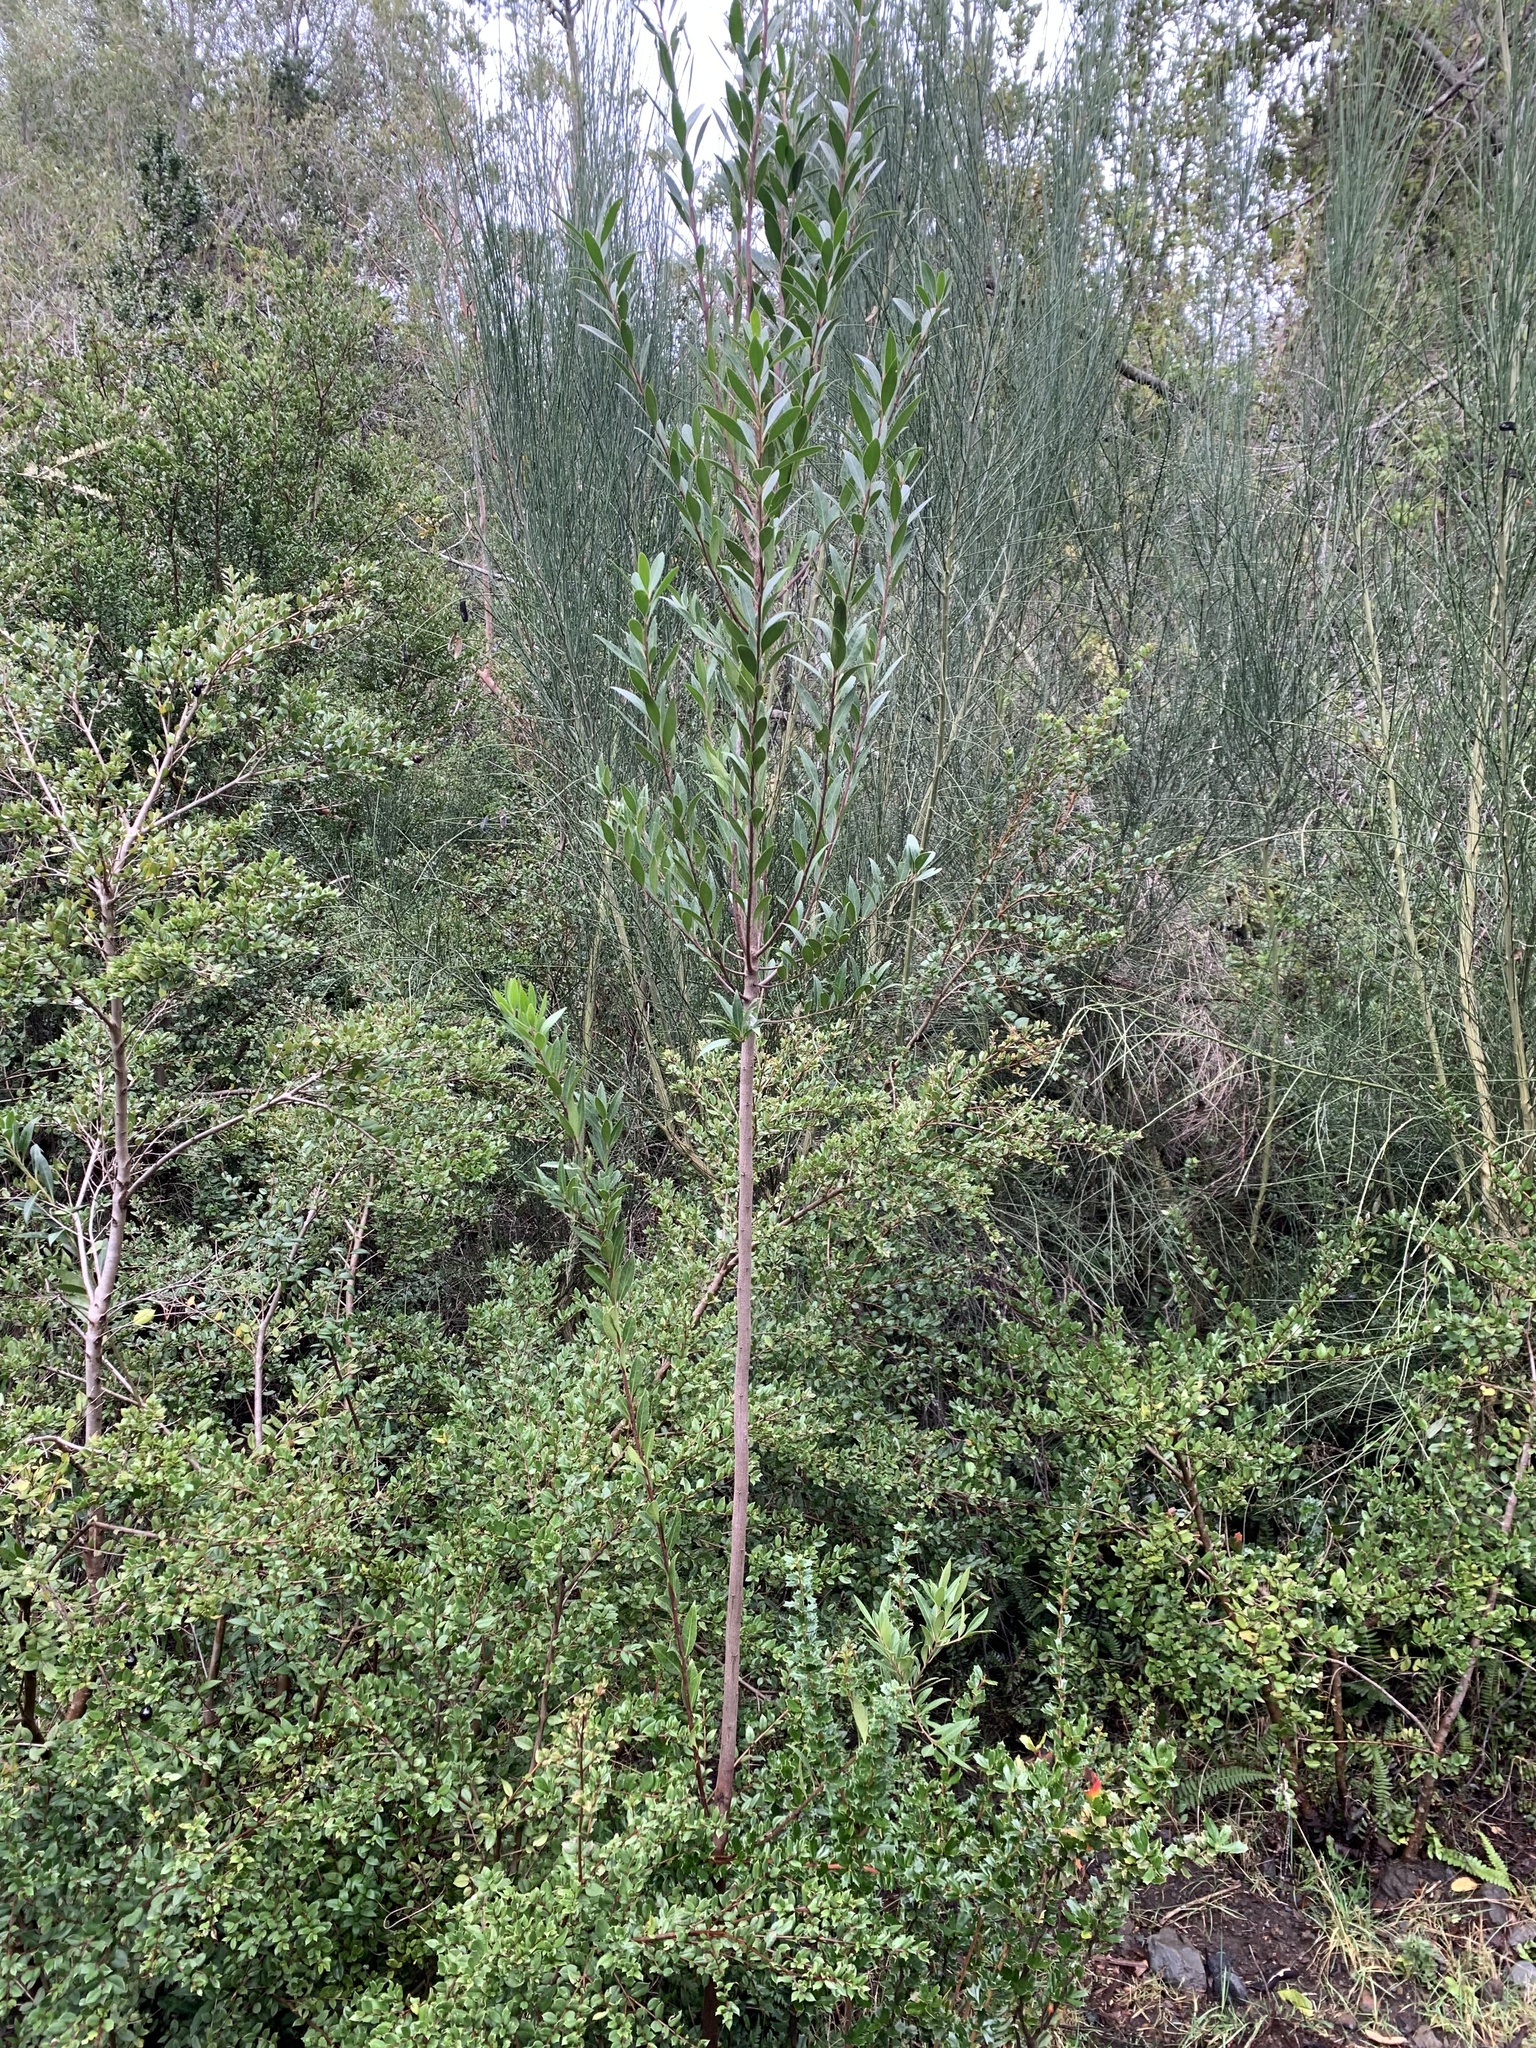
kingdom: Plantae
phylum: Tracheophyta
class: Magnoliopsida
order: Celastrales
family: Celastraceae
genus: Maytenus
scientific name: Maytenus magellanica
